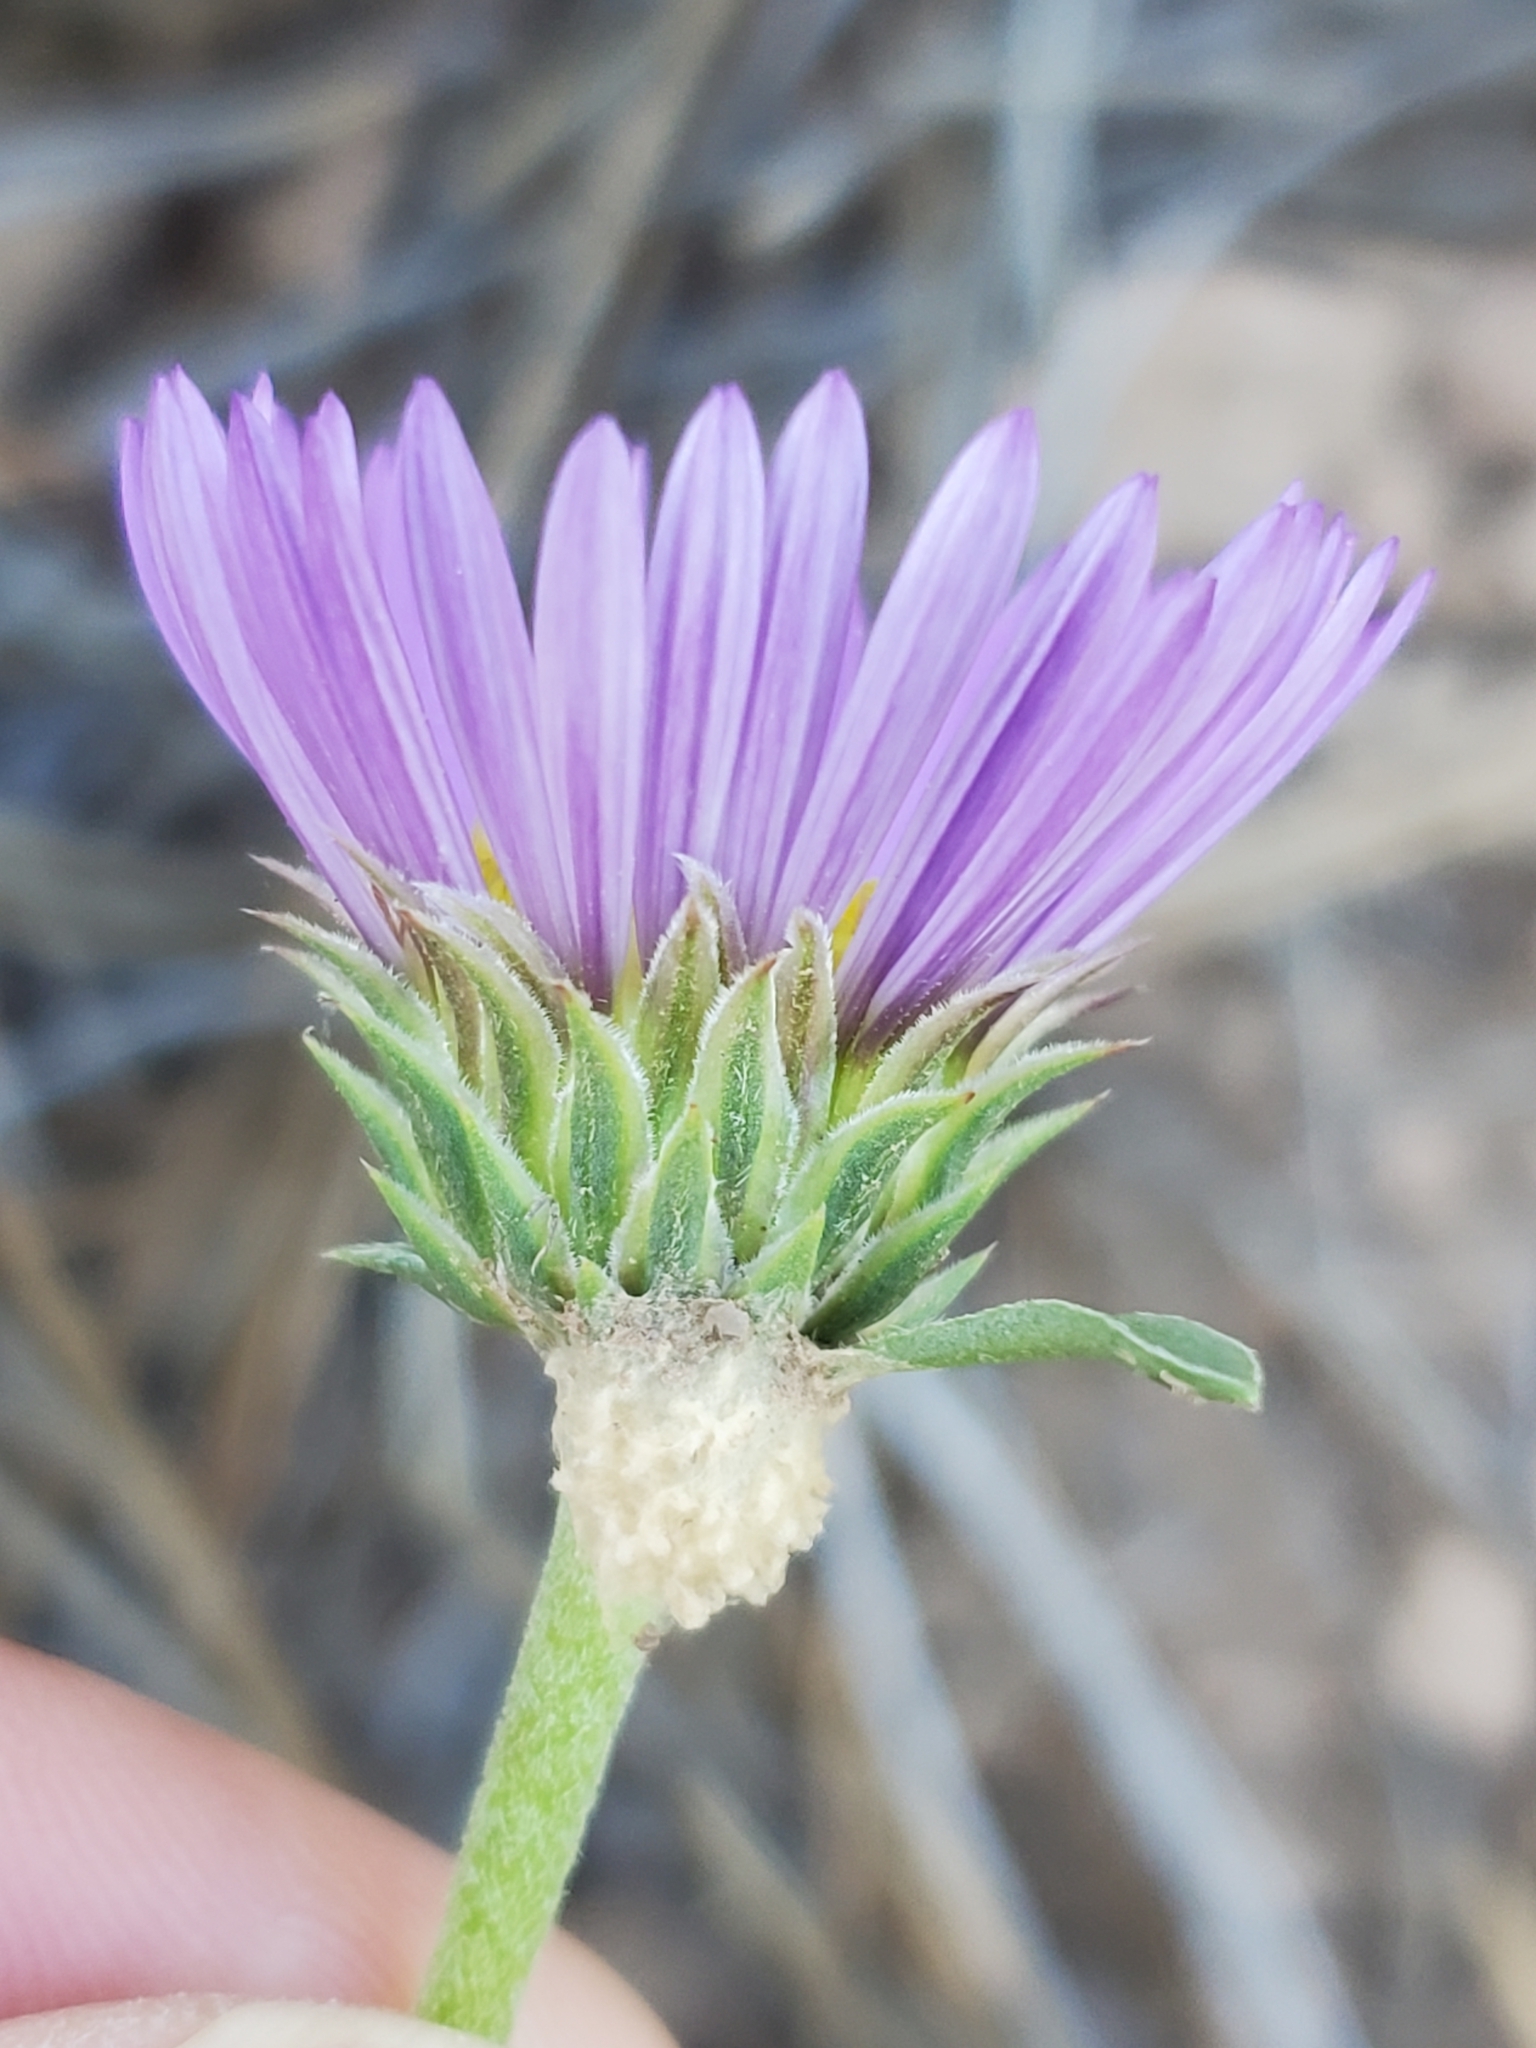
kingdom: Plantae
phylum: Tracheophyta
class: Magnoliopsida
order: Asterales
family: Asteraceae
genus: Townsendia
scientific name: Townsendia eximia
